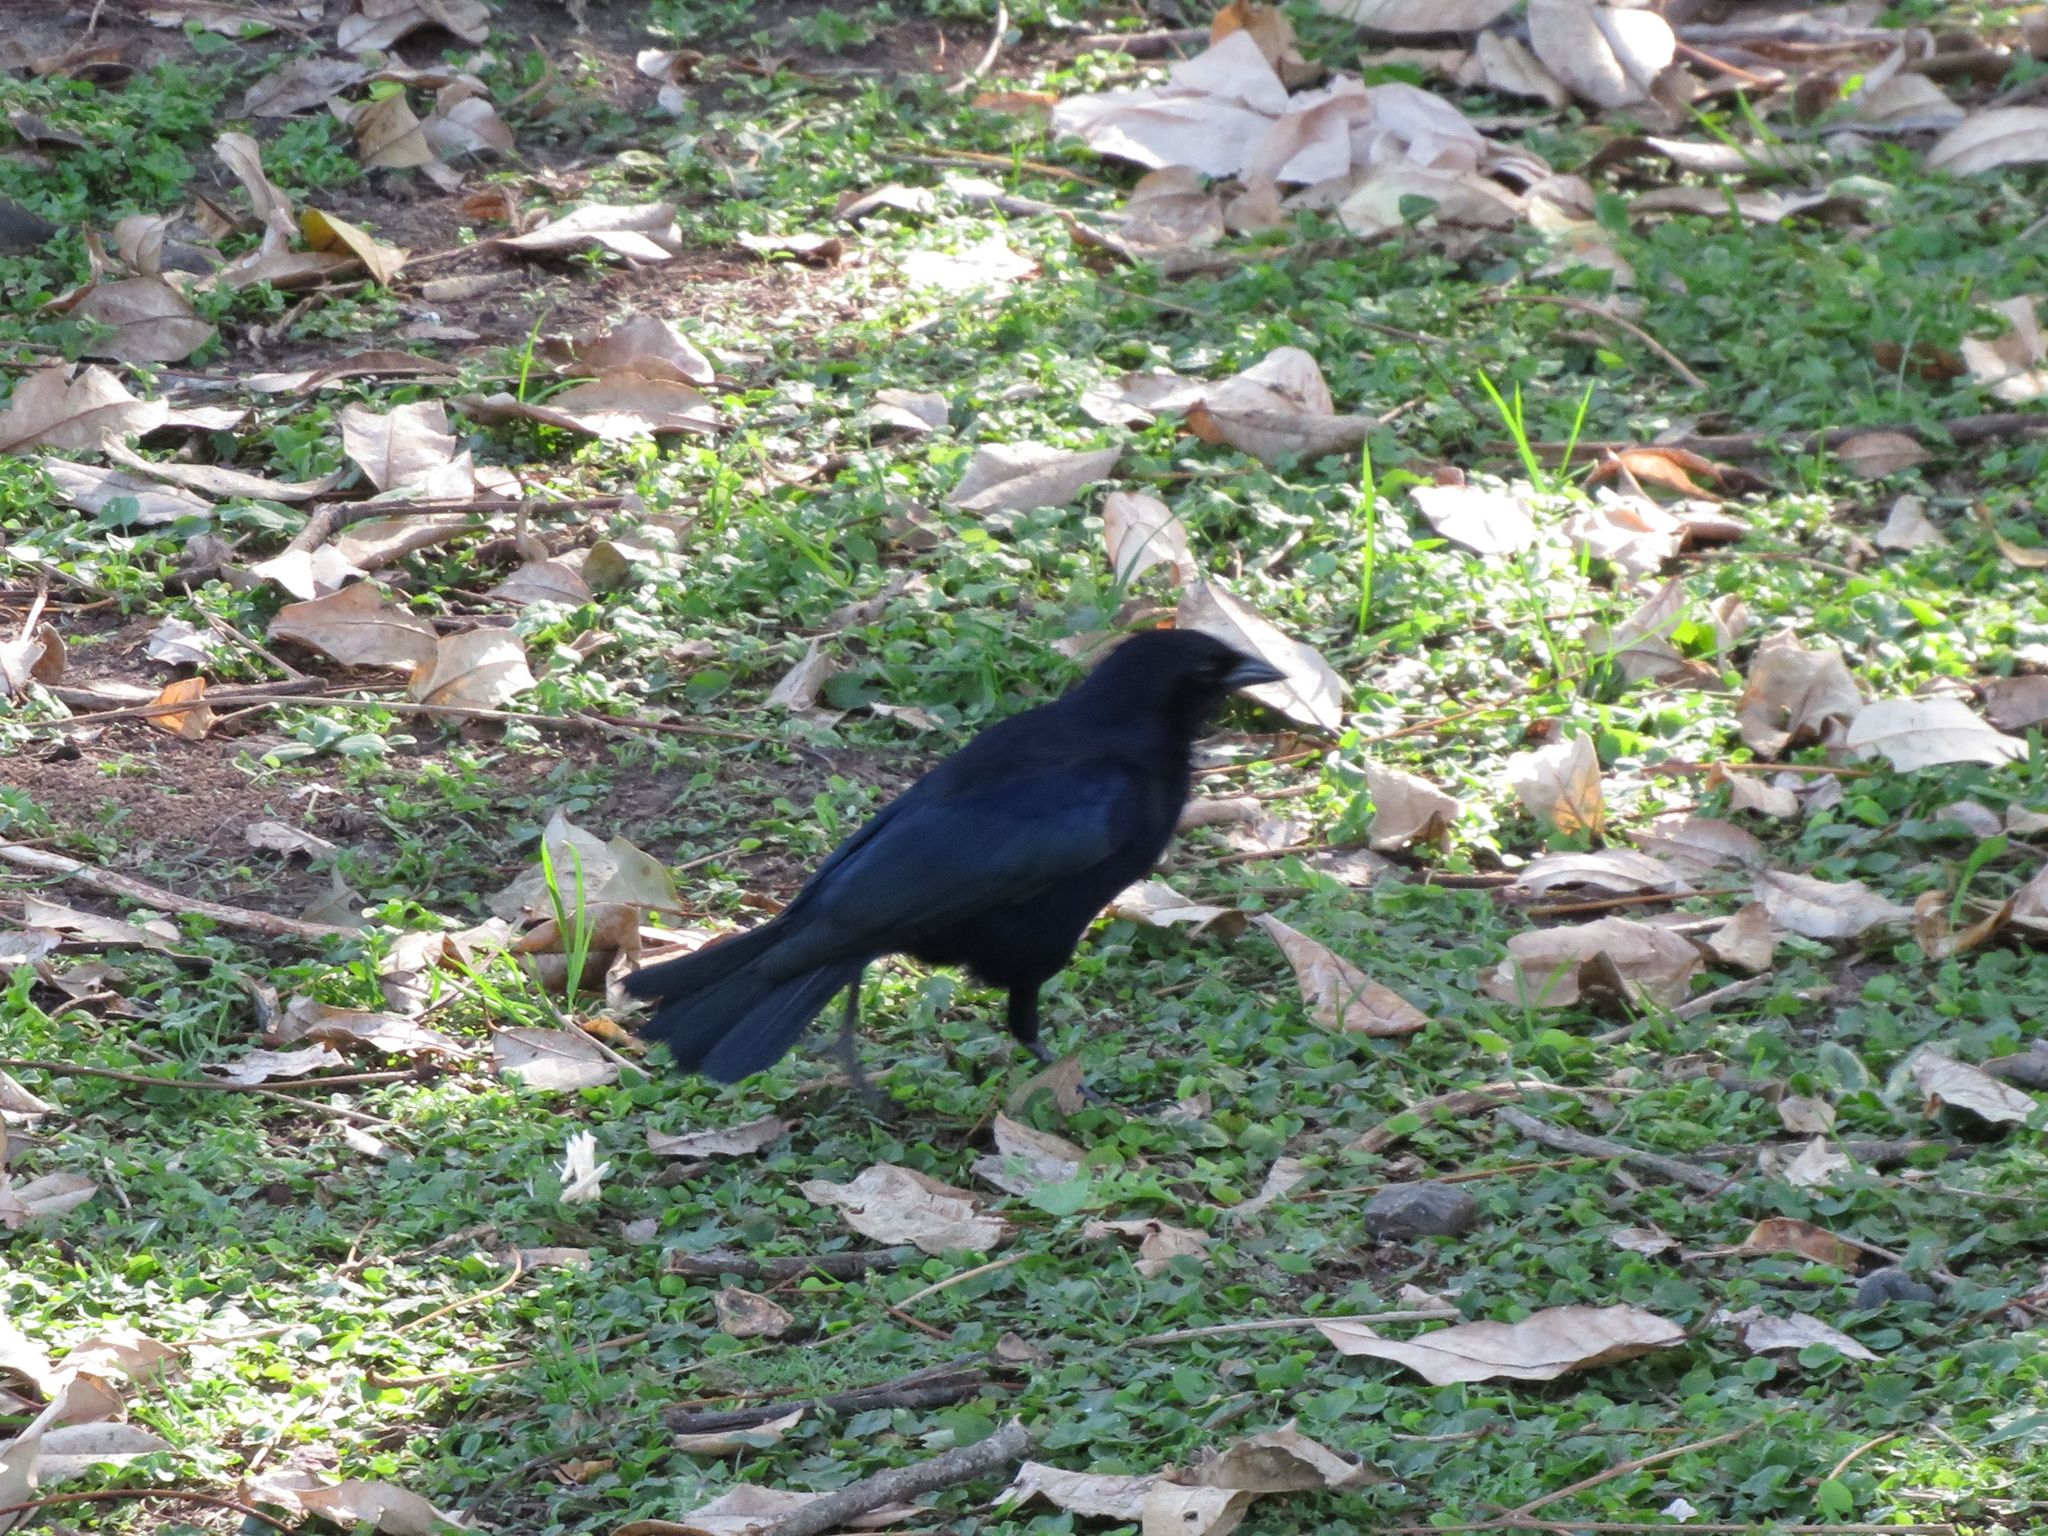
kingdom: Animalia
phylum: Chordata
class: Aves
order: Passeriformes
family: Icteridae
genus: Molothrus
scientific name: Molothrus bonariensis
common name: Shiny cowbird
